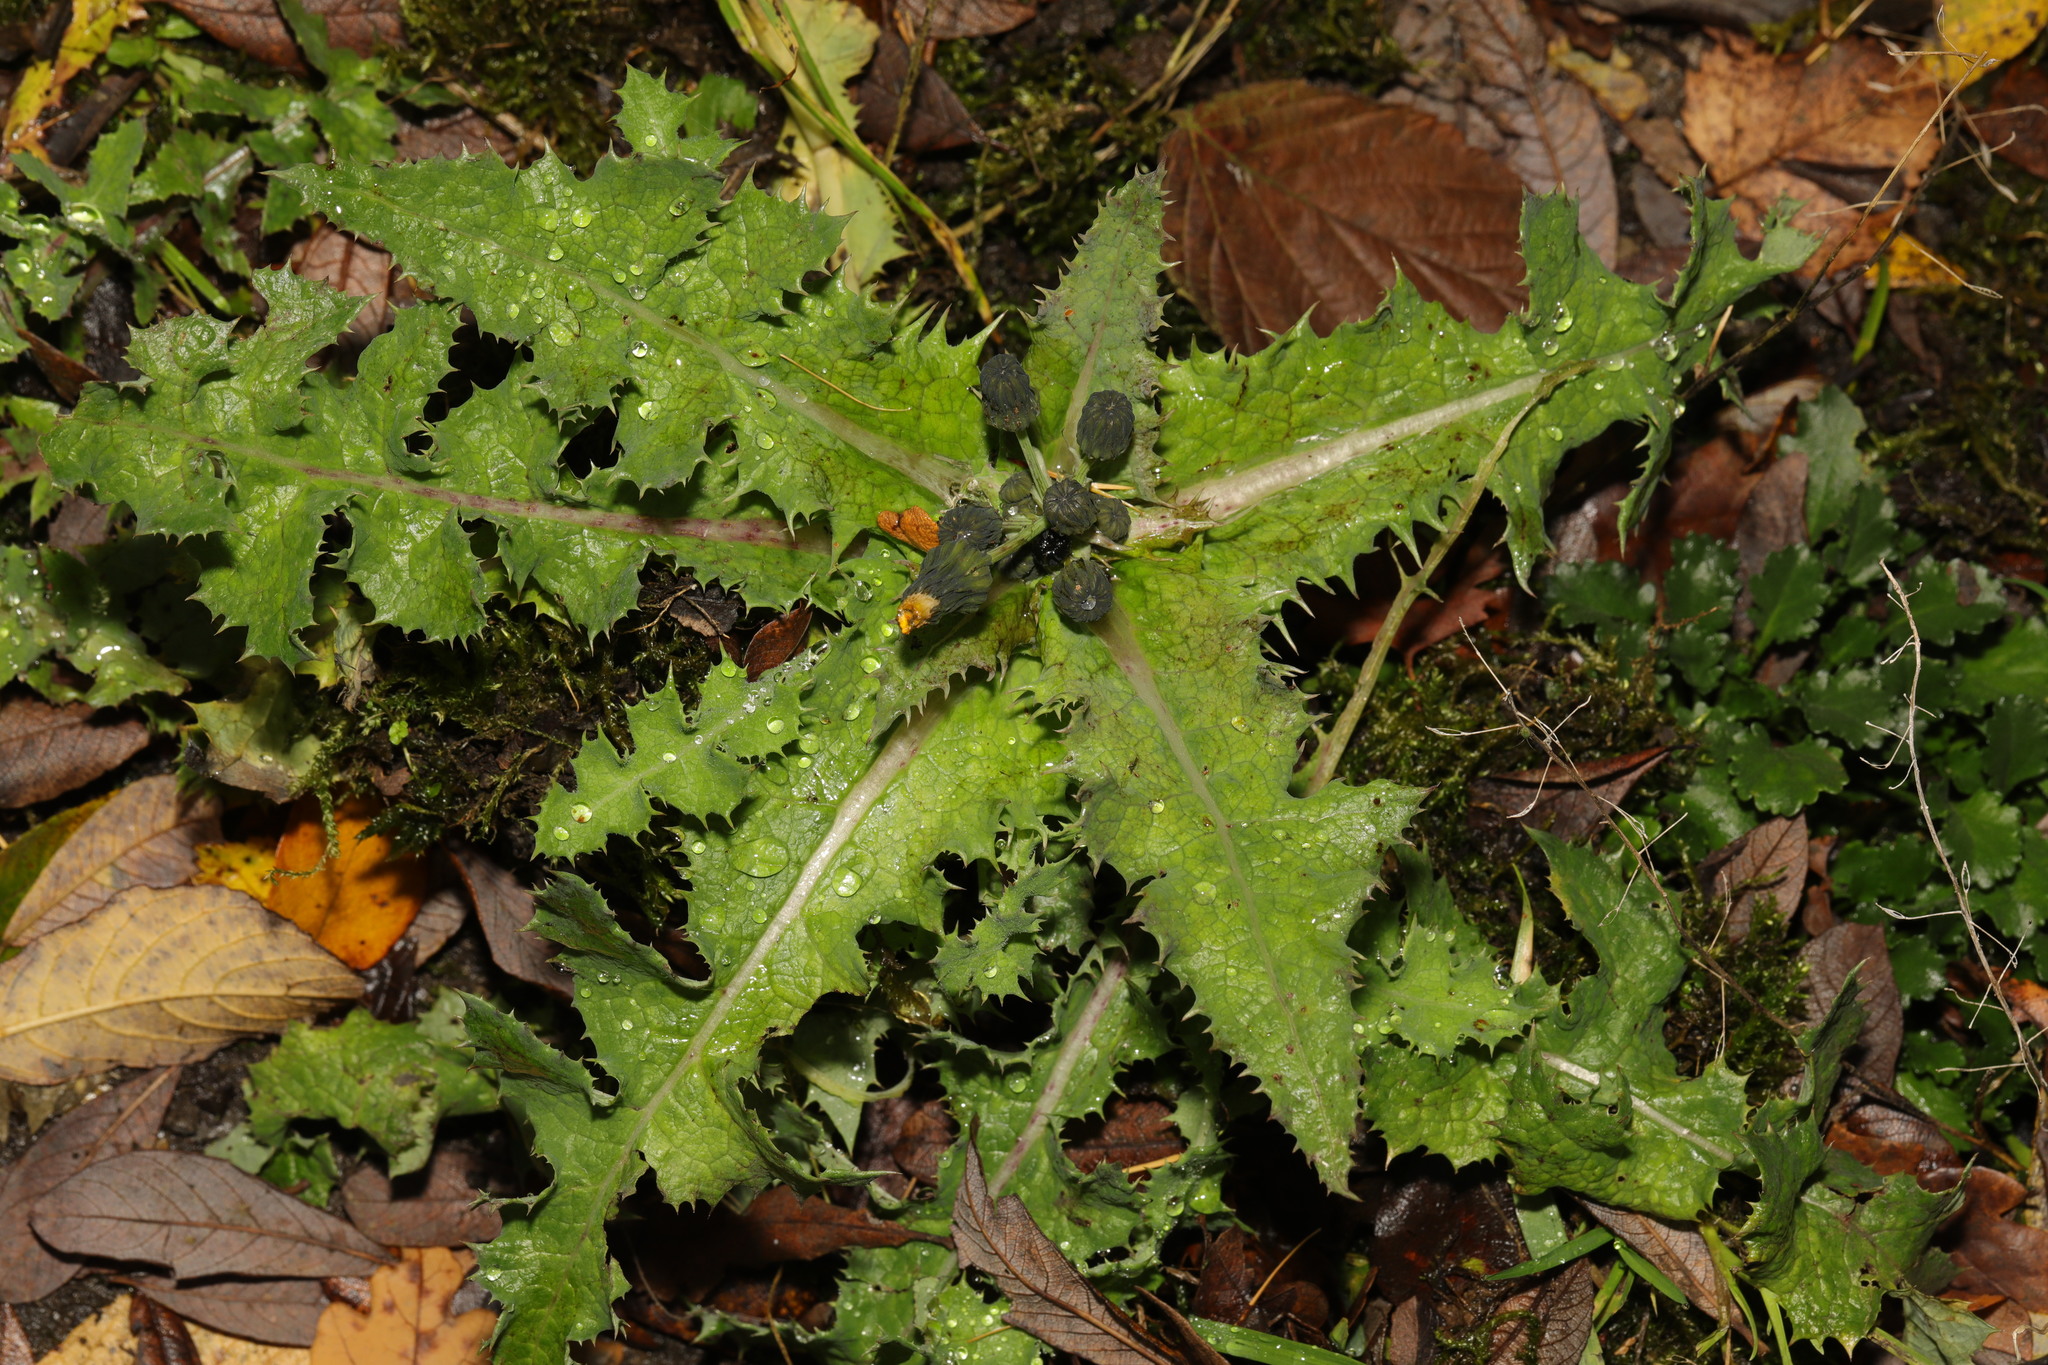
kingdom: Plantae
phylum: Tracheophyta
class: Magnoliopsida
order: Asterales
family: Asteraceae
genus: Sonchus
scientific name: Sonchus asper
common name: Prickly sow-thistle
